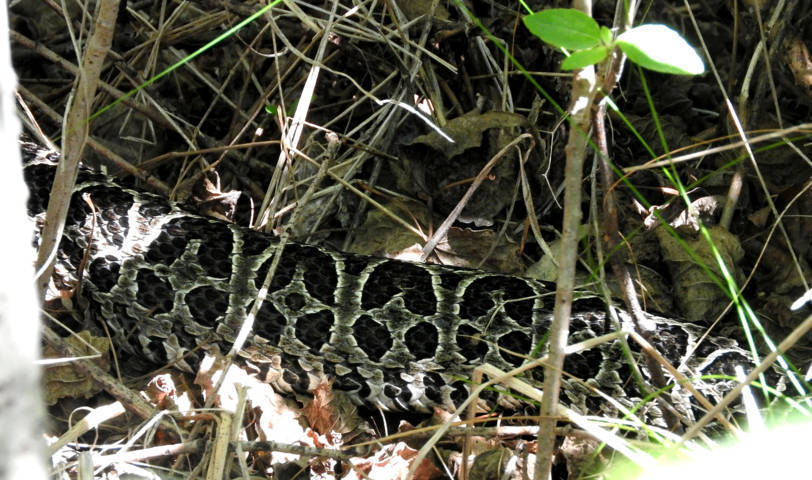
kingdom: Animalia
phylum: Chordata
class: Squamata
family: Viperidae
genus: Bothrops
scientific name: Bothrops alternatus
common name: Urutu
